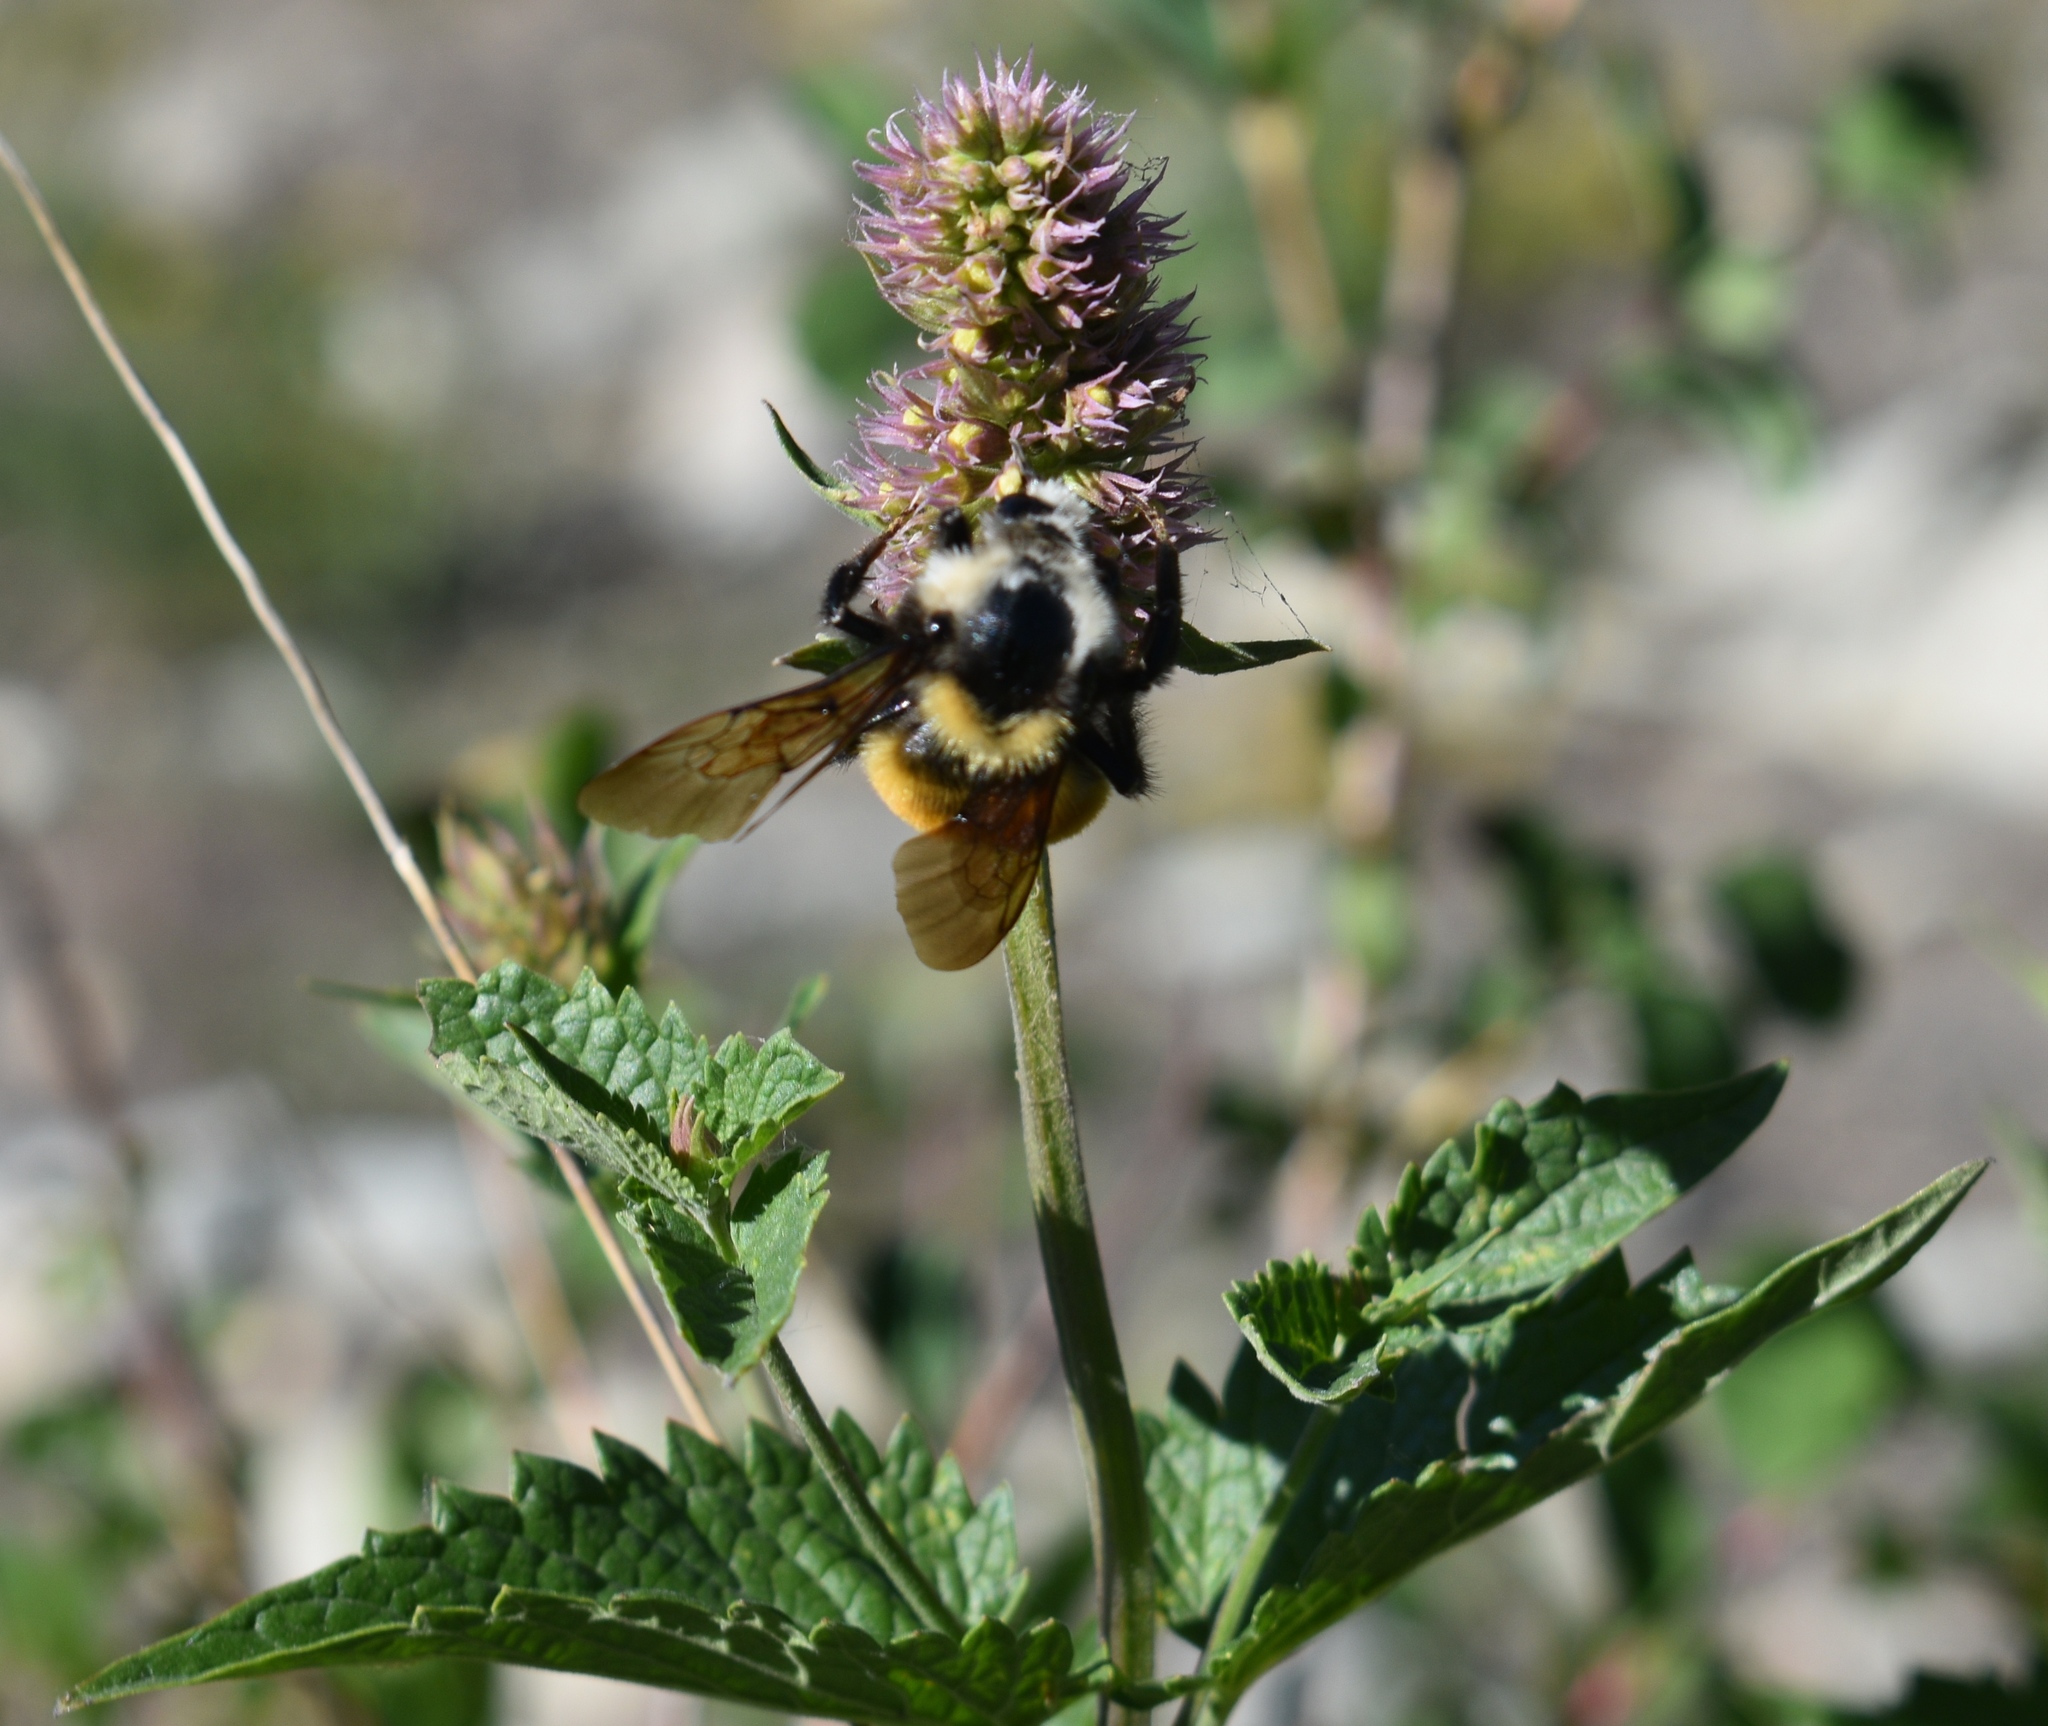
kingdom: Plantae
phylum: Tracheophyta
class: Magnoliopsida
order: Lamiales
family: Lamiaceae
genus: Agastache
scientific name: Agastache urticifolia
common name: Horsemint giant hyssop
